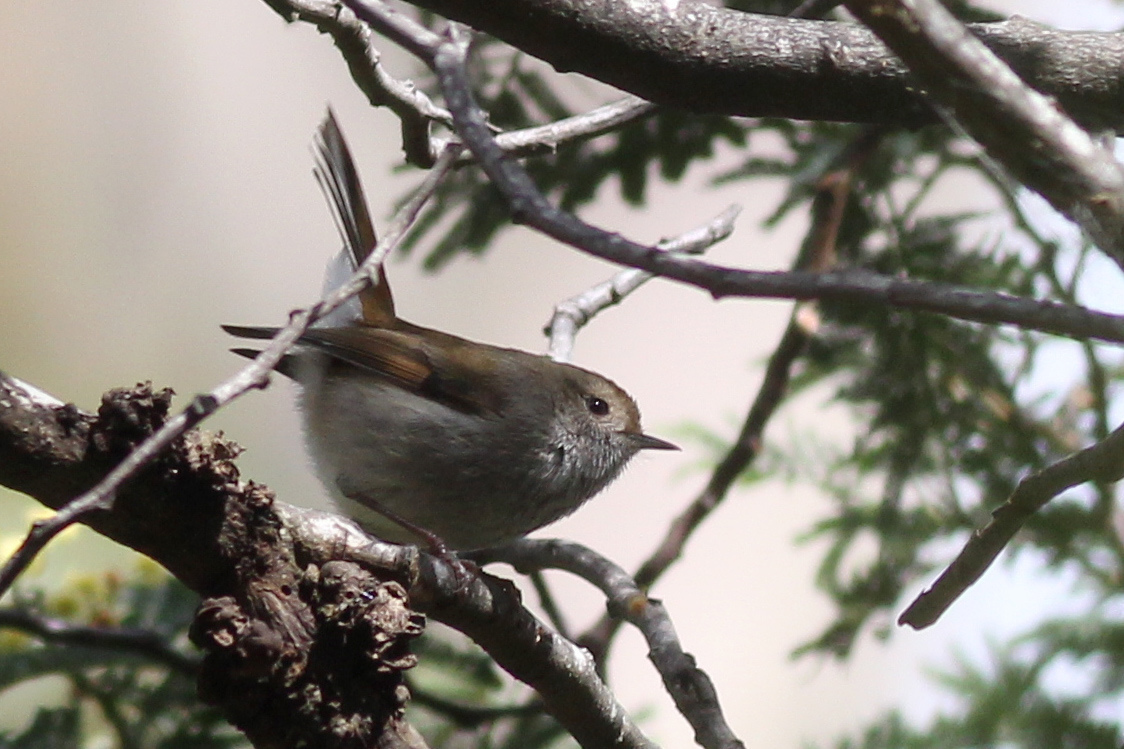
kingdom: Animalia
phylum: Chordata
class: Aves
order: Passeriformes
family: Acanthizidae
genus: Acanthiza
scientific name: Acanthiza ewingii
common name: Tasmanian thornbill
